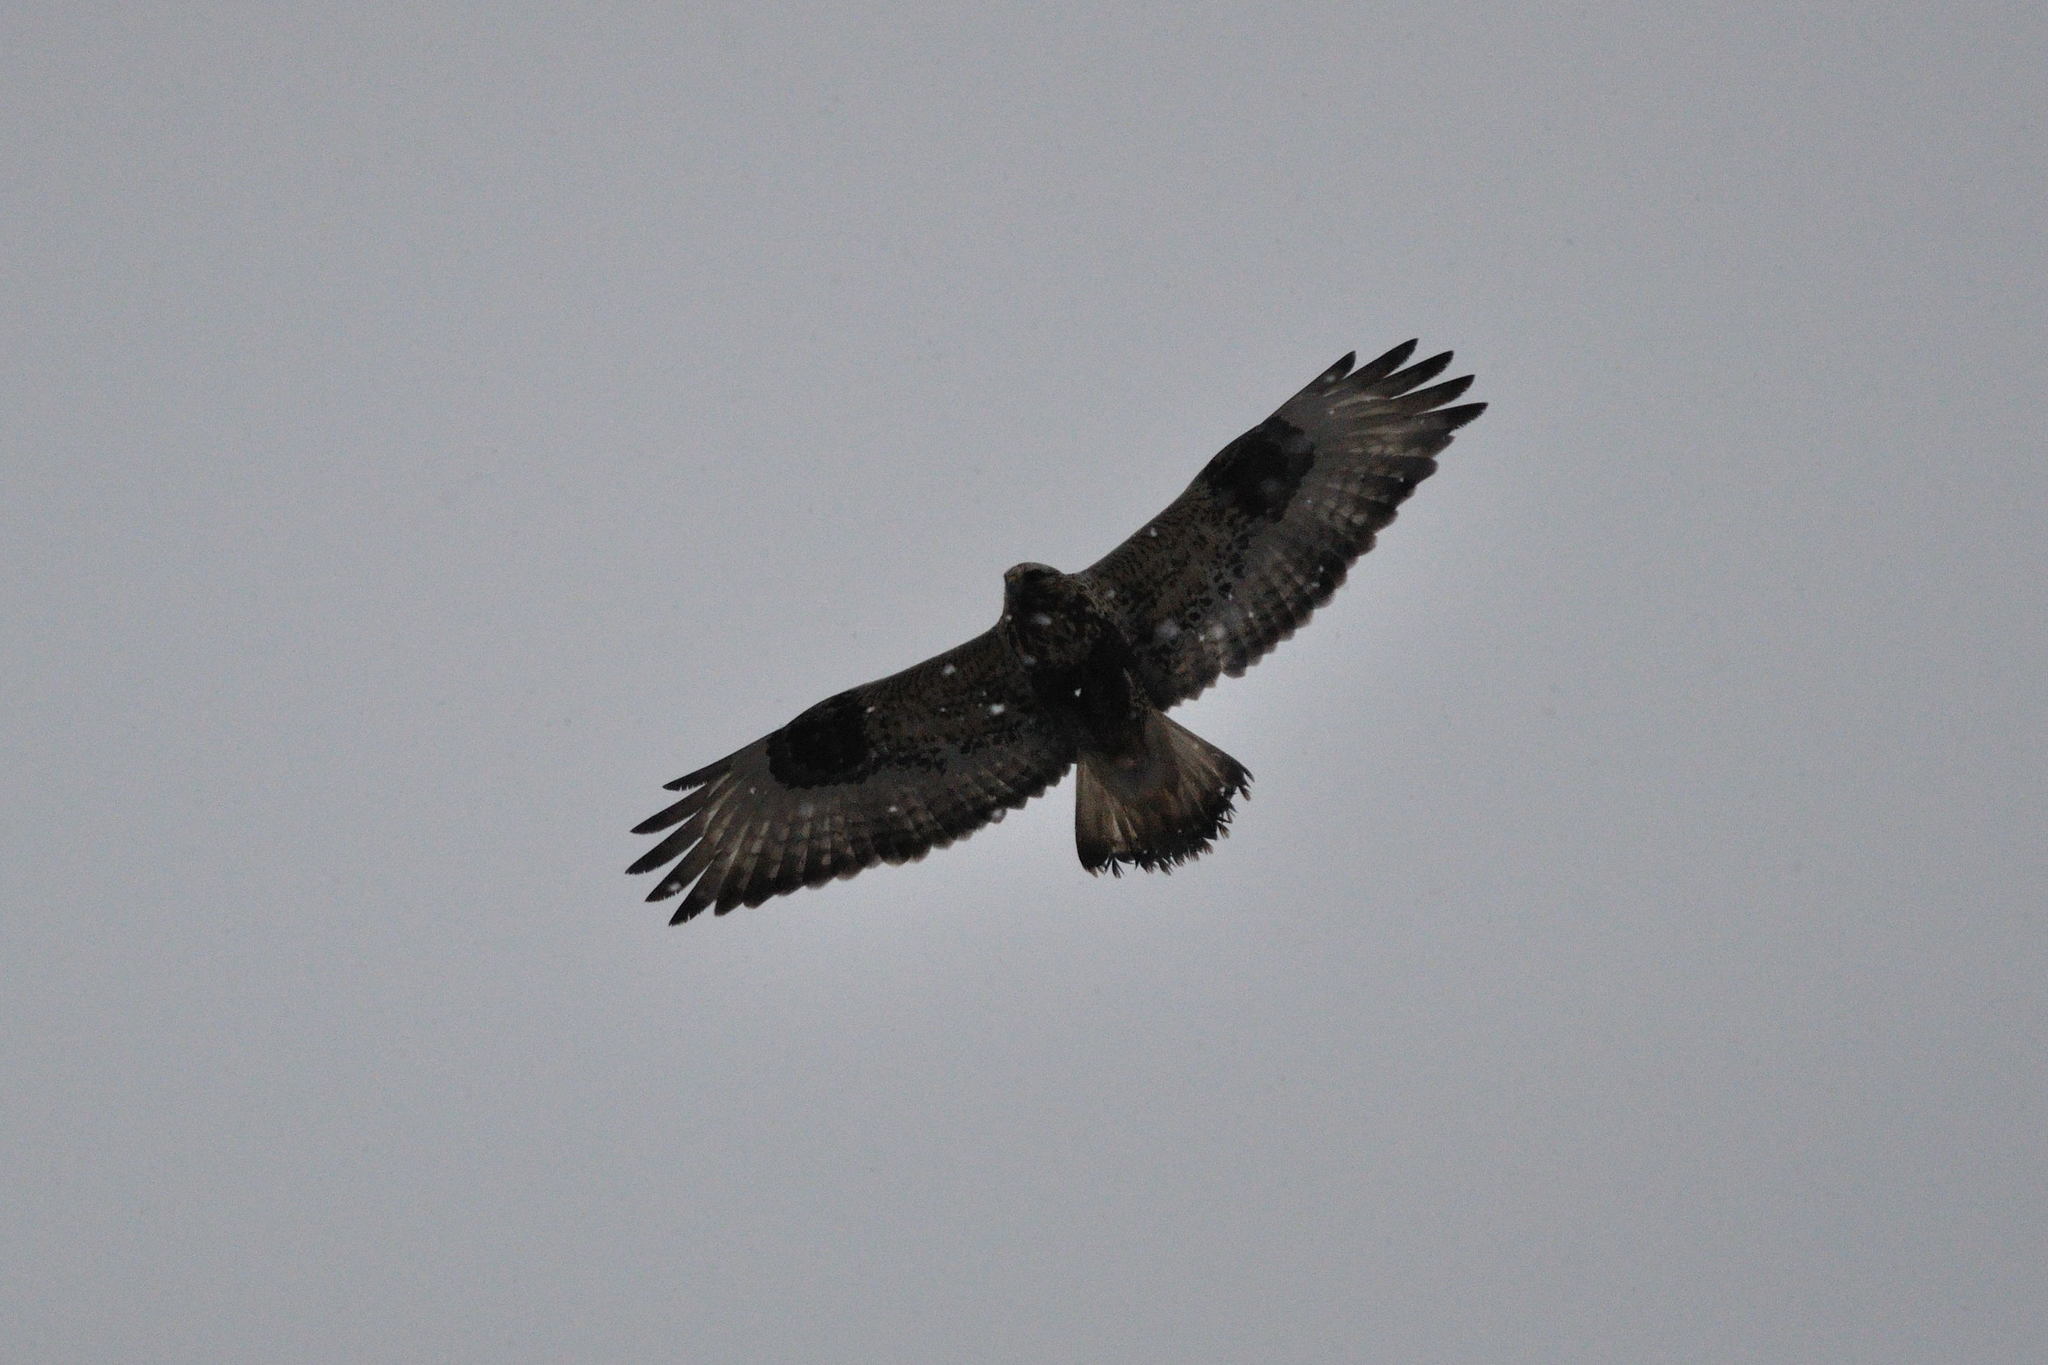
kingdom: Animalia
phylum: Chordata
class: Aves
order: Accipitriformes
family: Accipitridae
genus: Buteo
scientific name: Buteo lagopus
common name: Rough-legged buzzard
